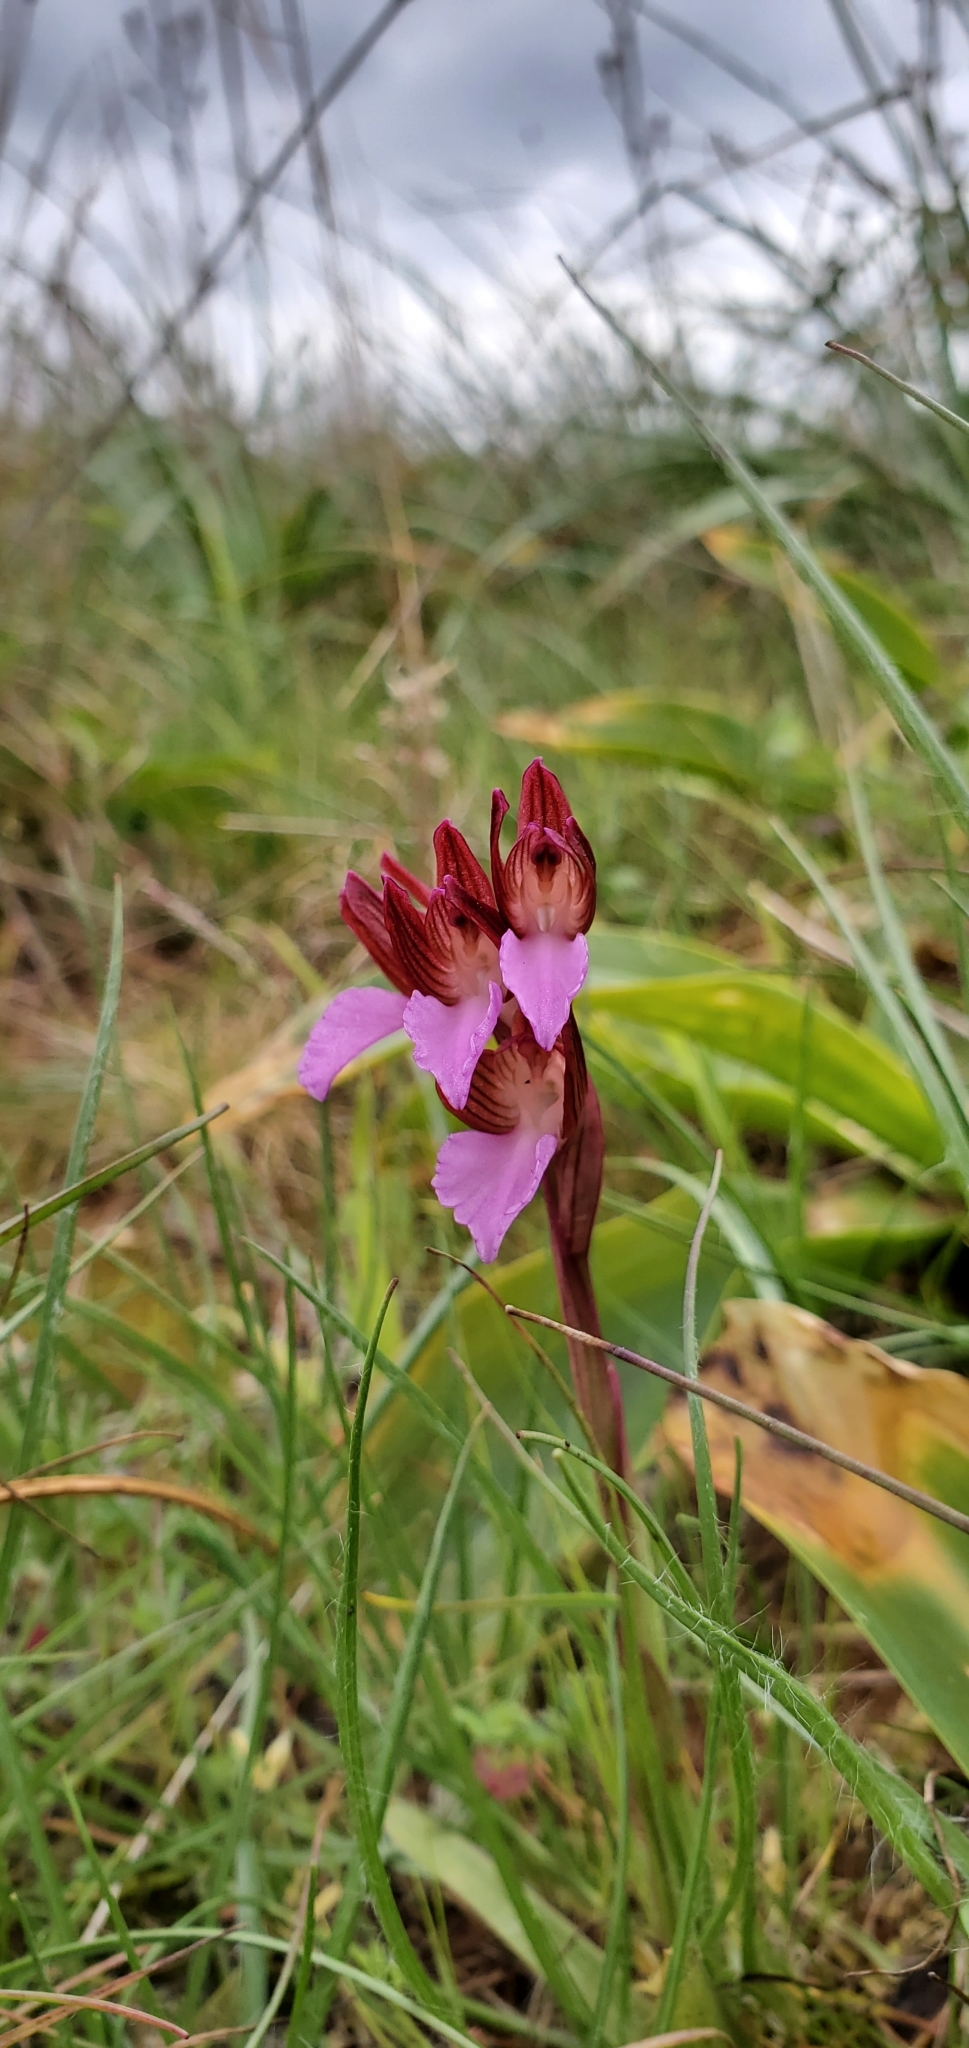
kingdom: Plantae
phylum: Tracheophyta
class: Liliopsida
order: Asparagales
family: Orchidaceae
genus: Anacamptis
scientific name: Anacamptis papilionacea
